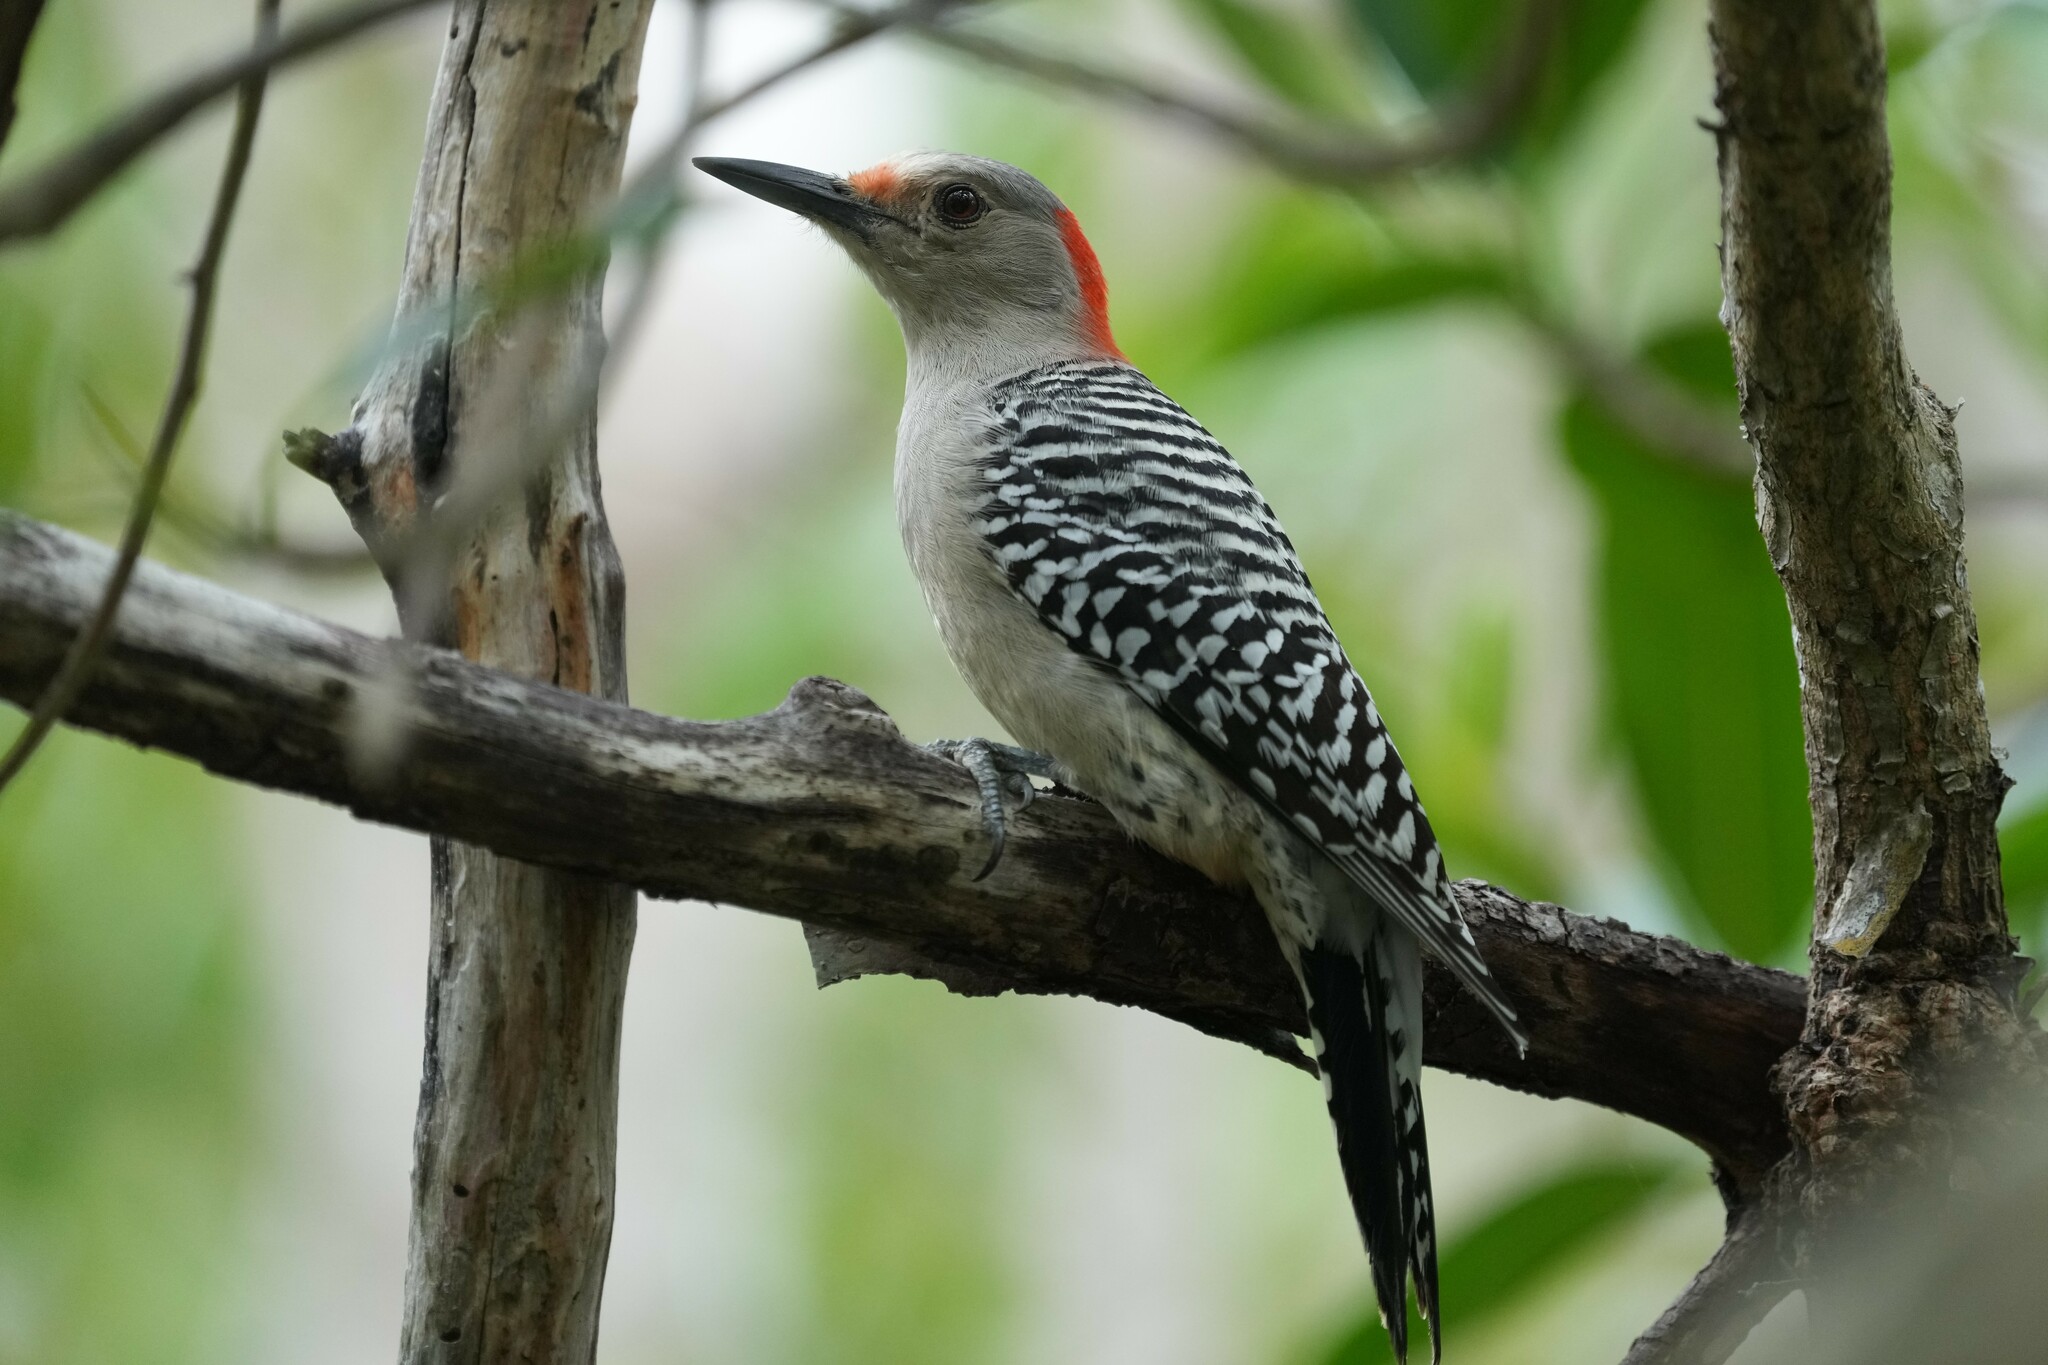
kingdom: Animalia
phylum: Chordata
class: Aves
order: Piciformes
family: Picidae
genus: Melanerpes
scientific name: Melanerpes carolinus
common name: Red-bellied woodpecker
